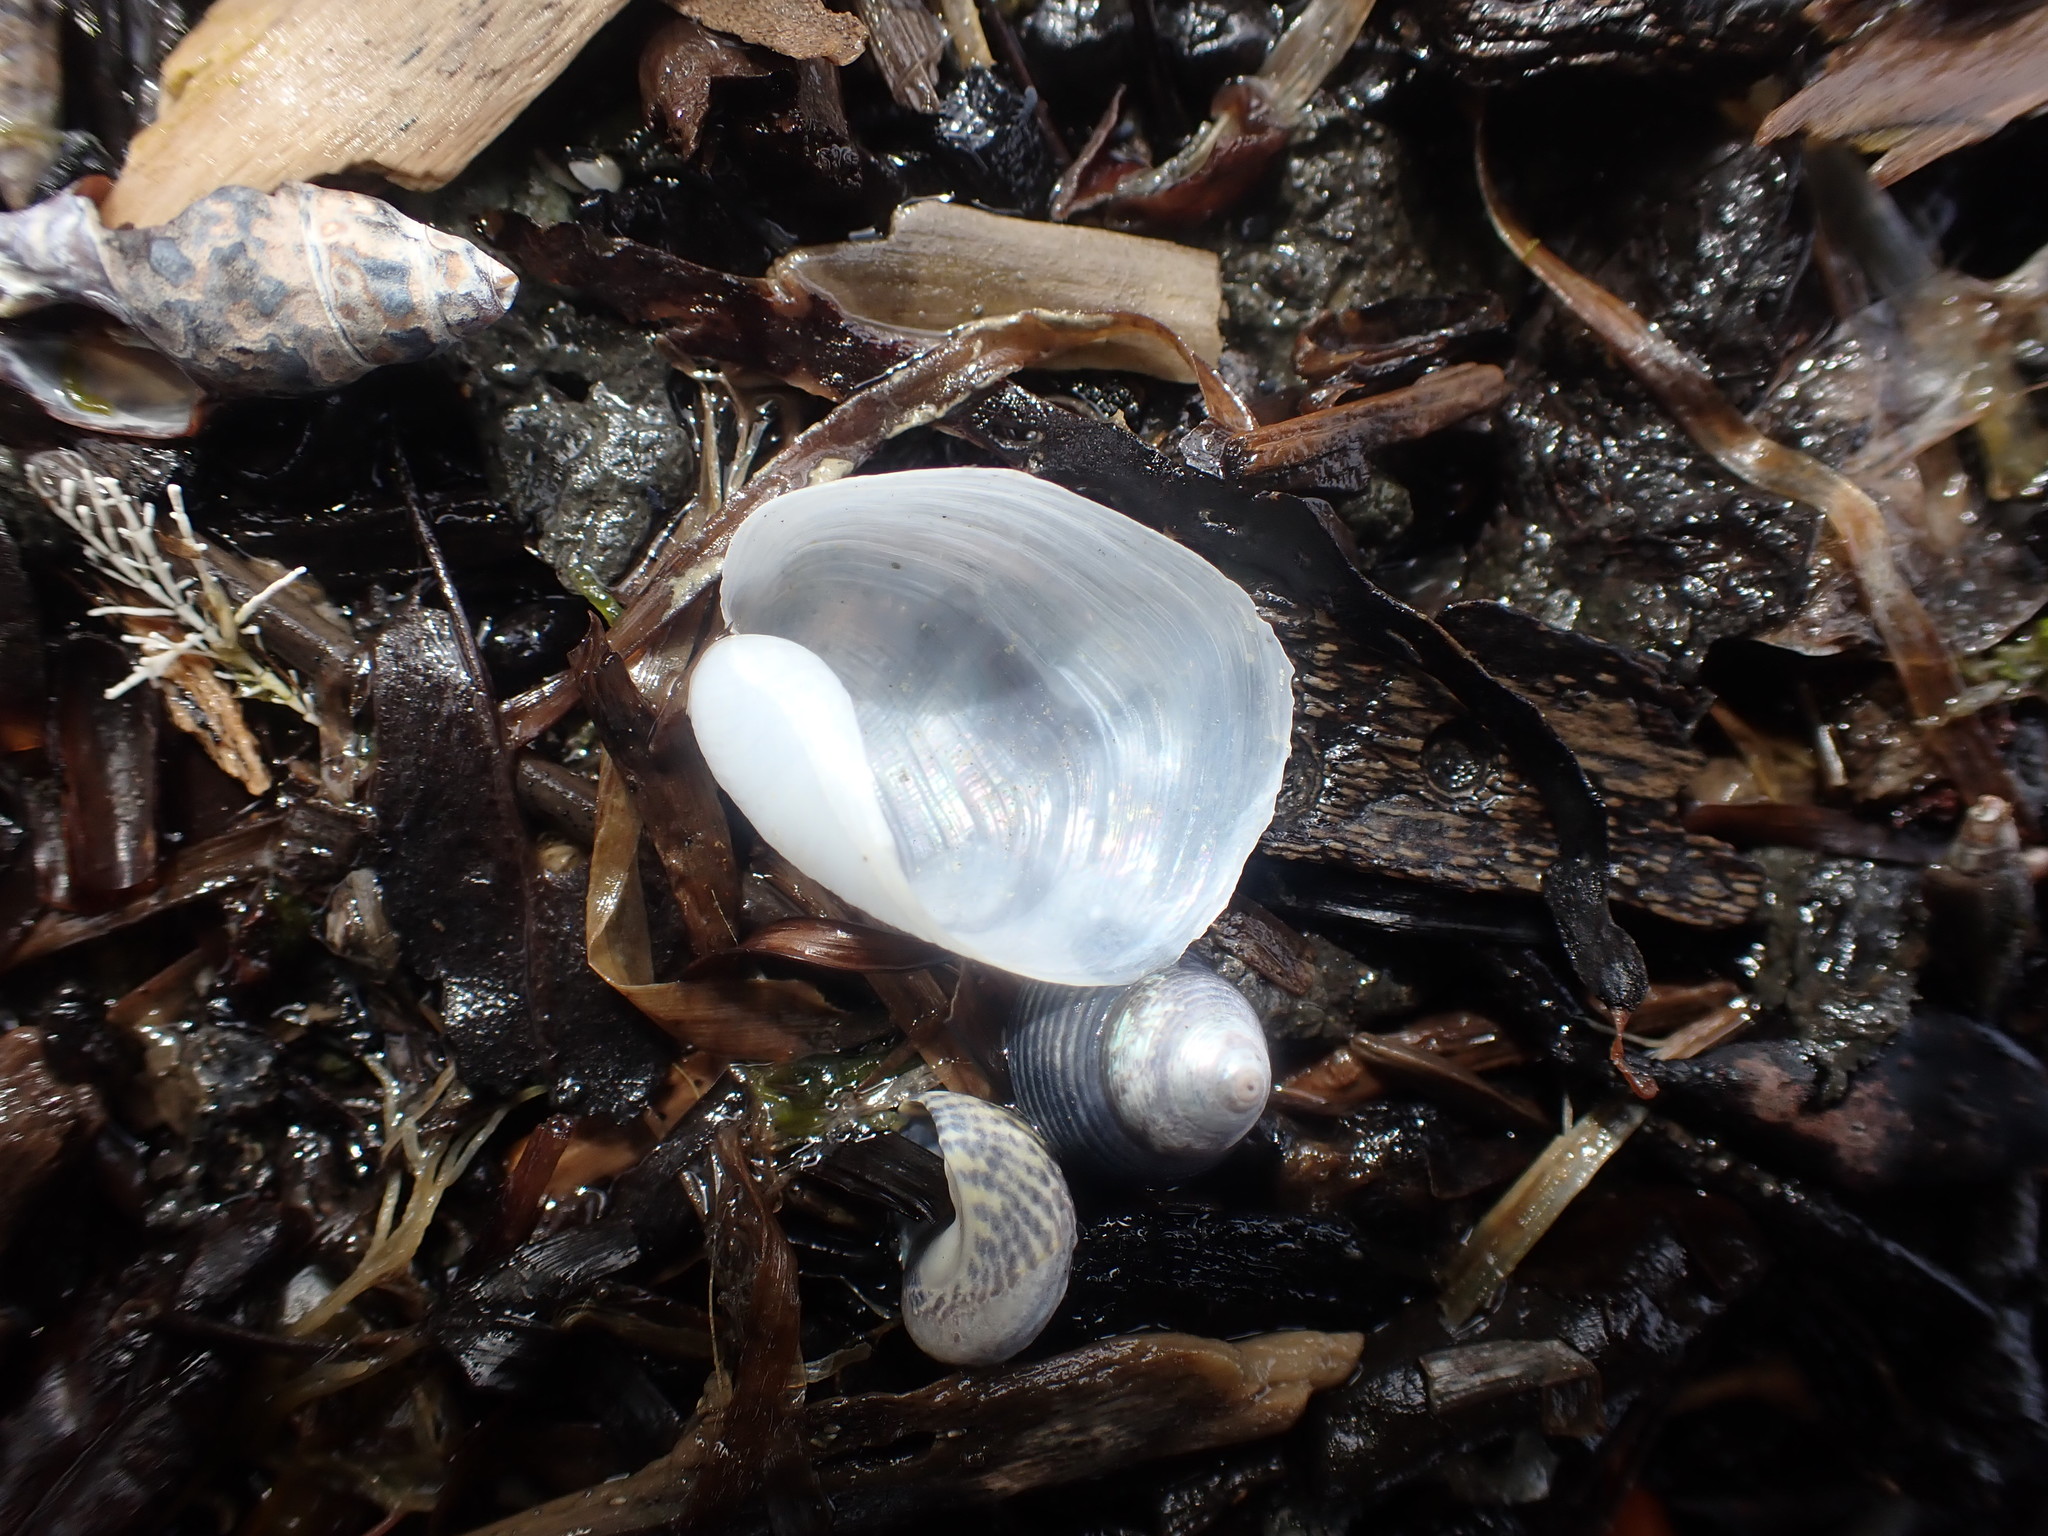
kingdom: Animalia
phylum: Mollusca
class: Gastropoda
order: Cephalaspidea
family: Philinidae
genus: Philine
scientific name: Philine
